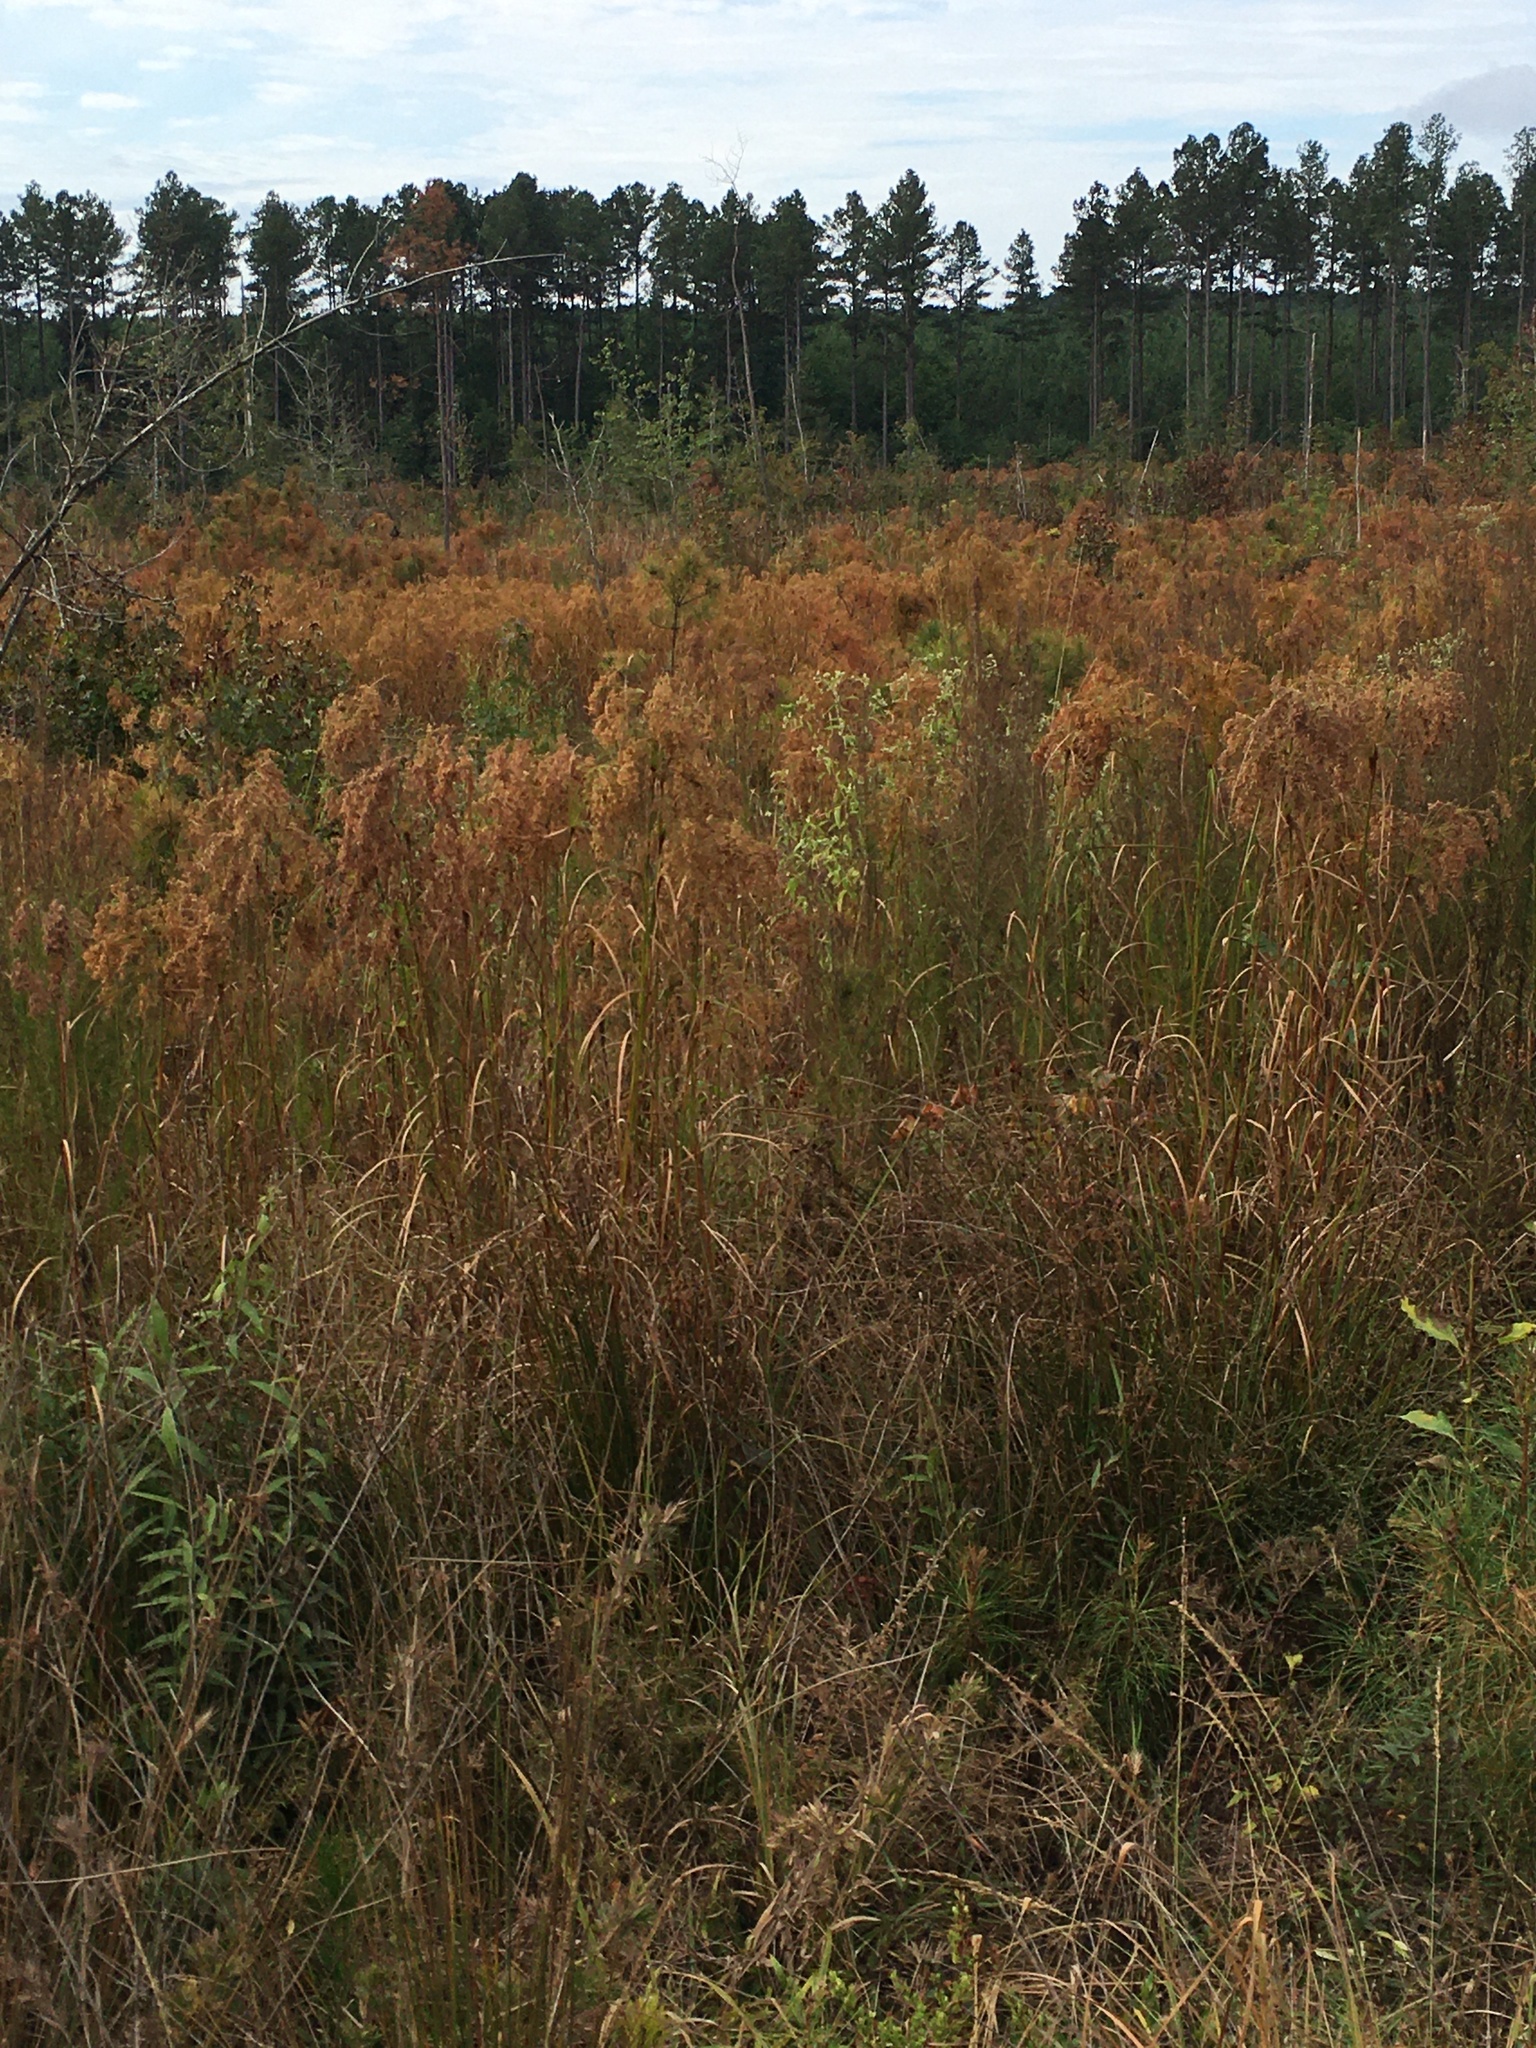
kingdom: Plantae
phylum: Tracheophyta
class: Liliopsida
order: Poales
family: Cyperaceae
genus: Scirpus
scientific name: Scirpus cyperinus
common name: Black-sheathed bulrush
